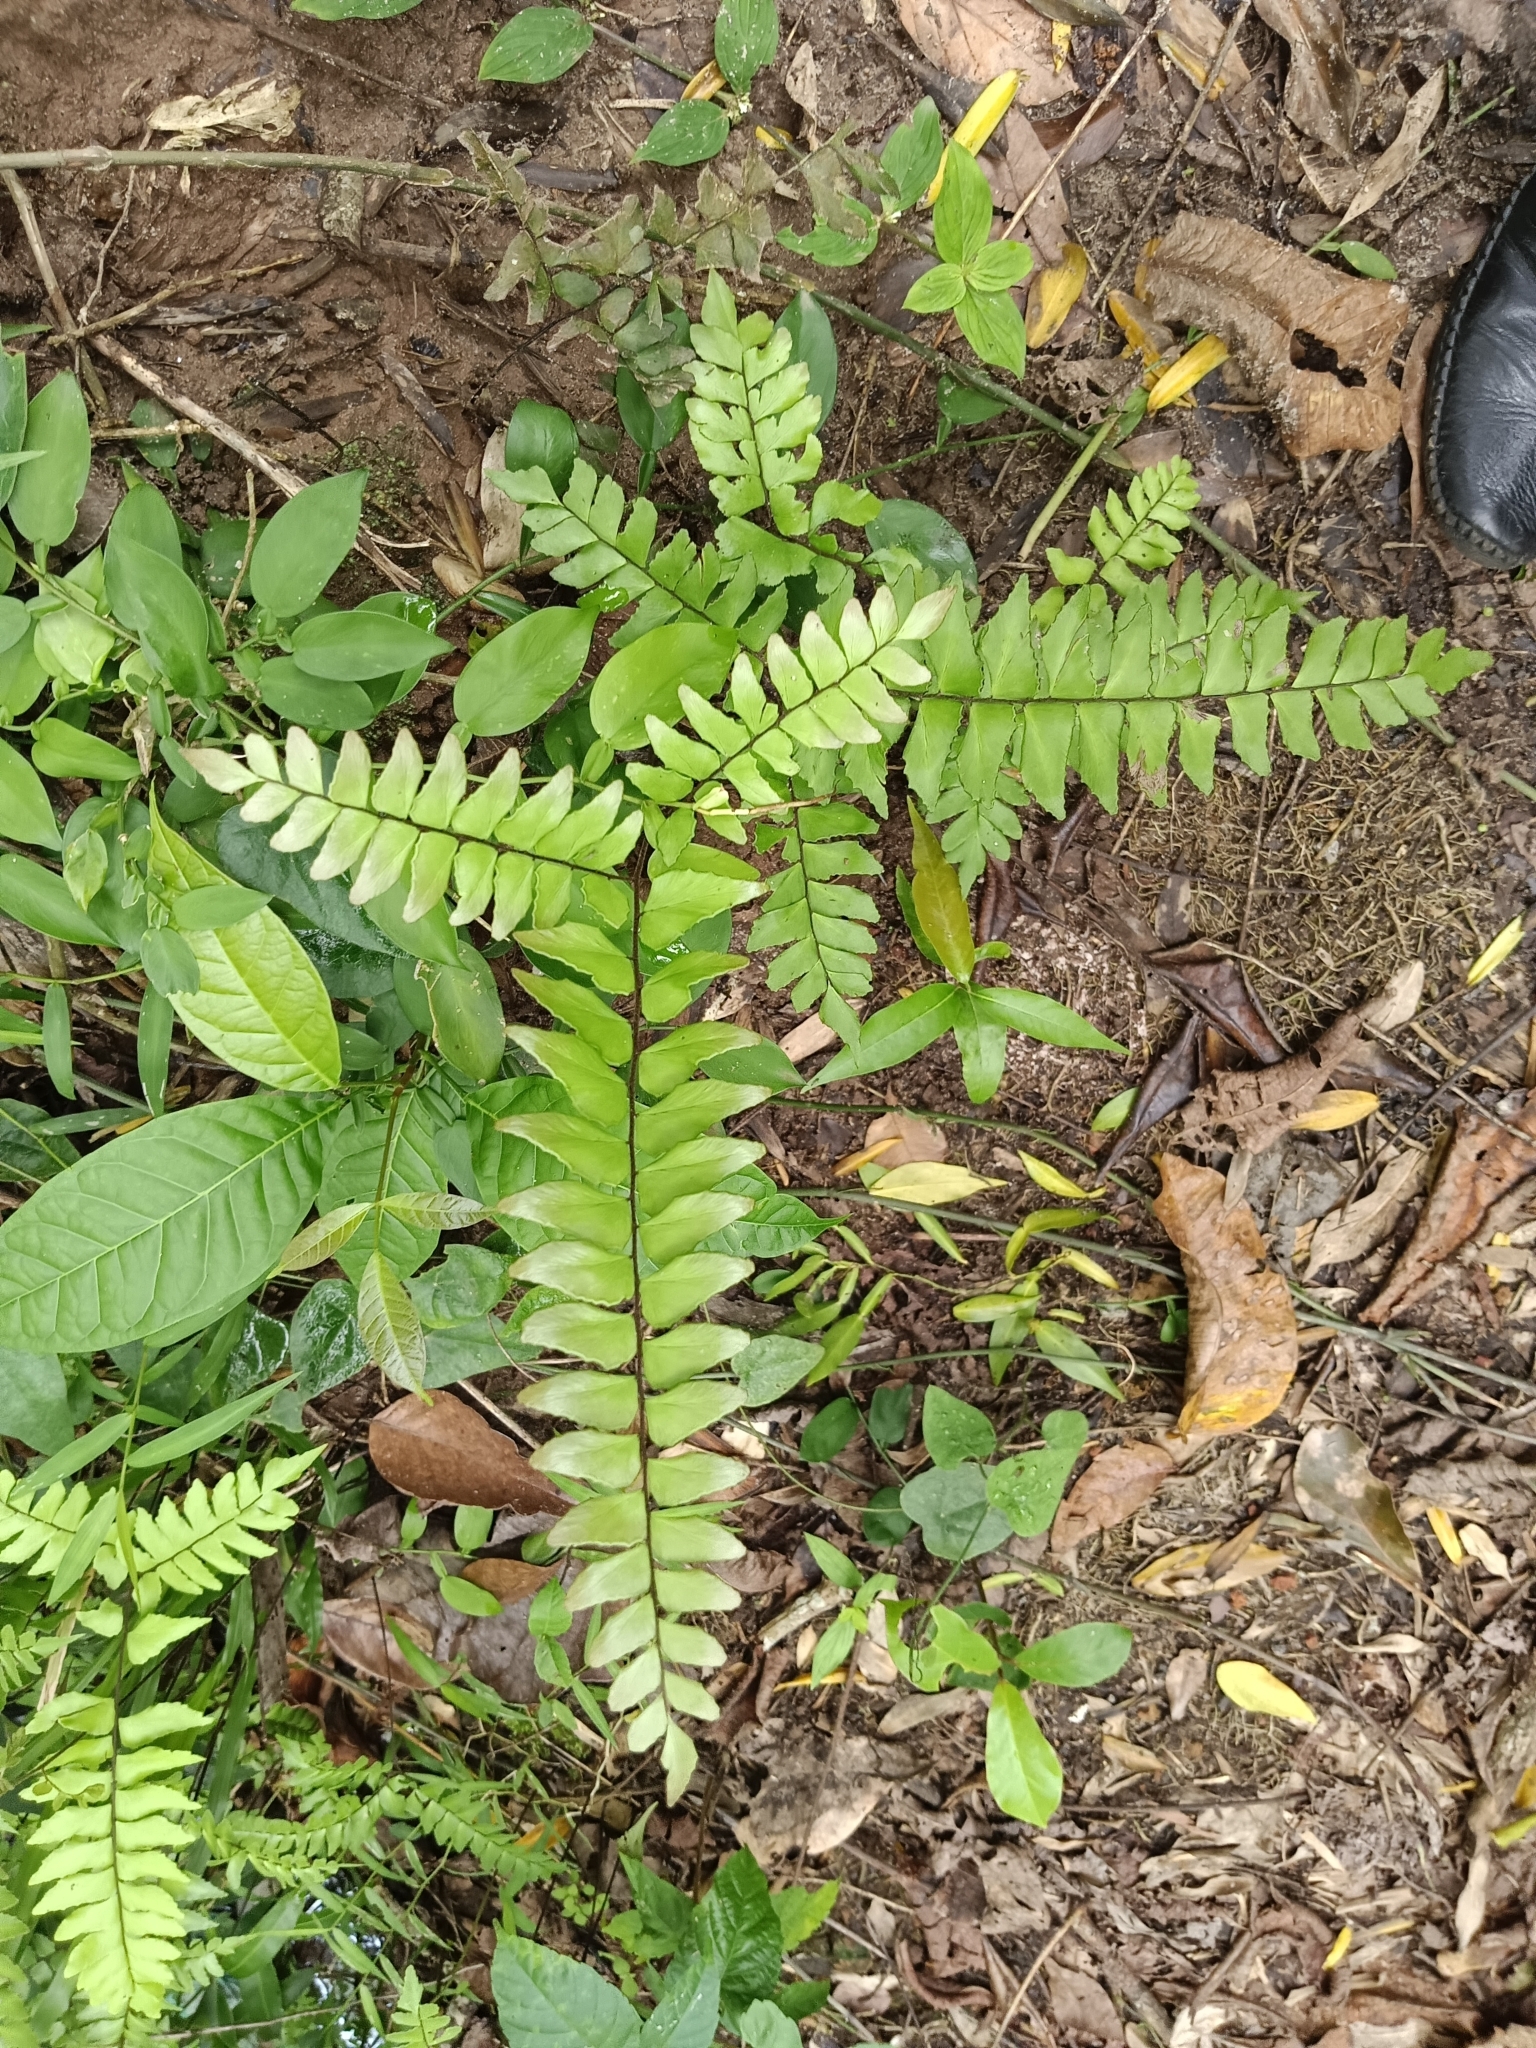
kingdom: Plantae
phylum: Tracheophyta
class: Polypodiopsida
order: Polypodiales
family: Pteridaceae
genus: Adiantum
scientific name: Adiantum latifolium
